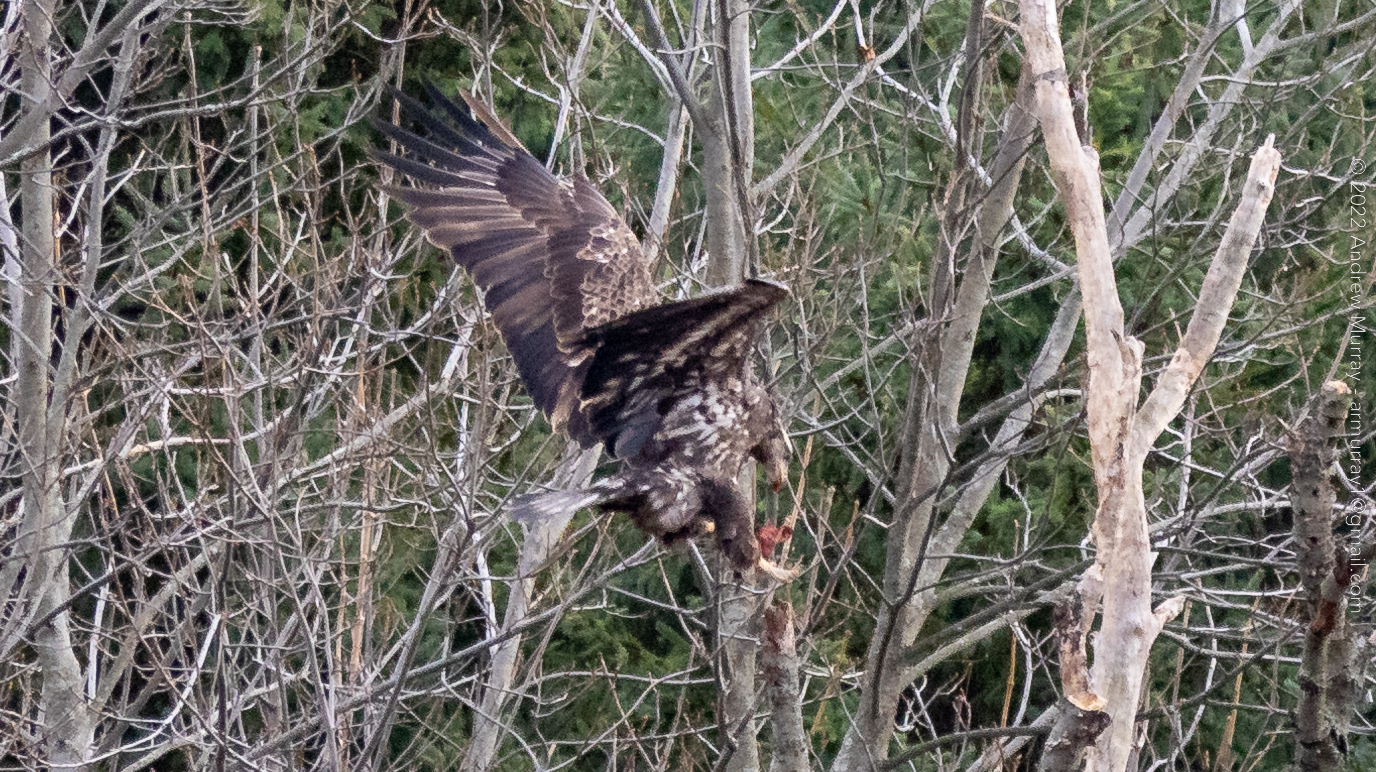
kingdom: Animalia
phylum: Chordata
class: Aves
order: Accipitriformes
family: Accipitridae
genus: Haliaeetus
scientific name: Haliaeetus leucocephalus
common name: Bald eagle
